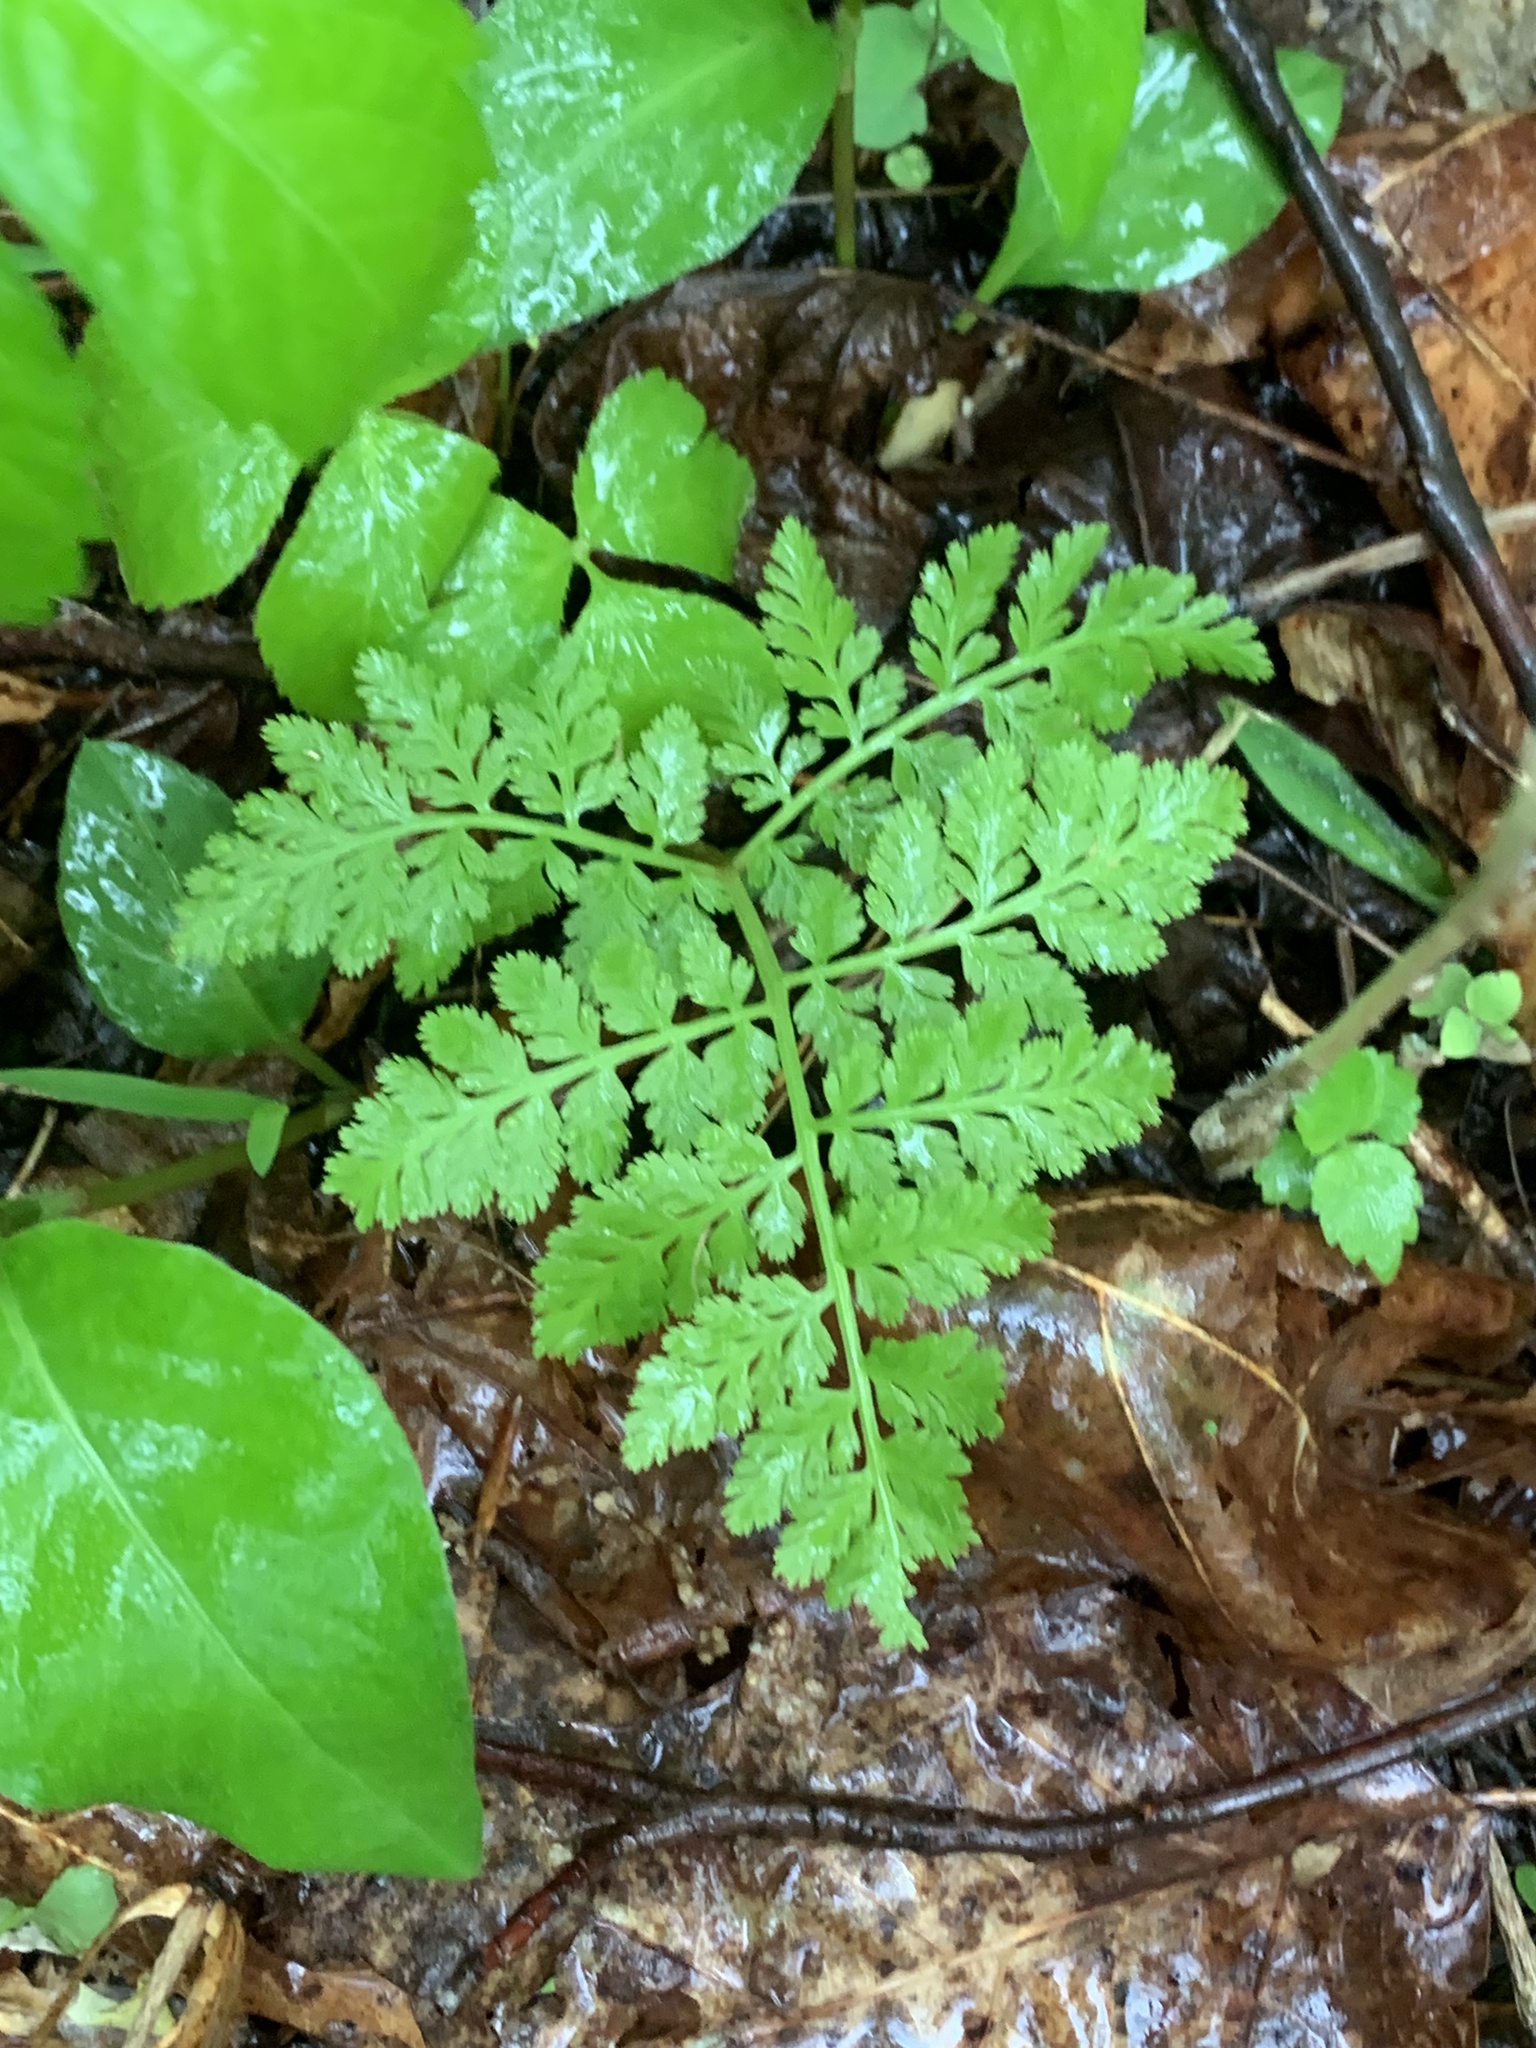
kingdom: Plantae
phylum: Tracheophyta
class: Polypodiopsida
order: Ophioglossales
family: Ophioglossaceae
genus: Botrypus
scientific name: Botrypus virginianus
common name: Common grapefern
